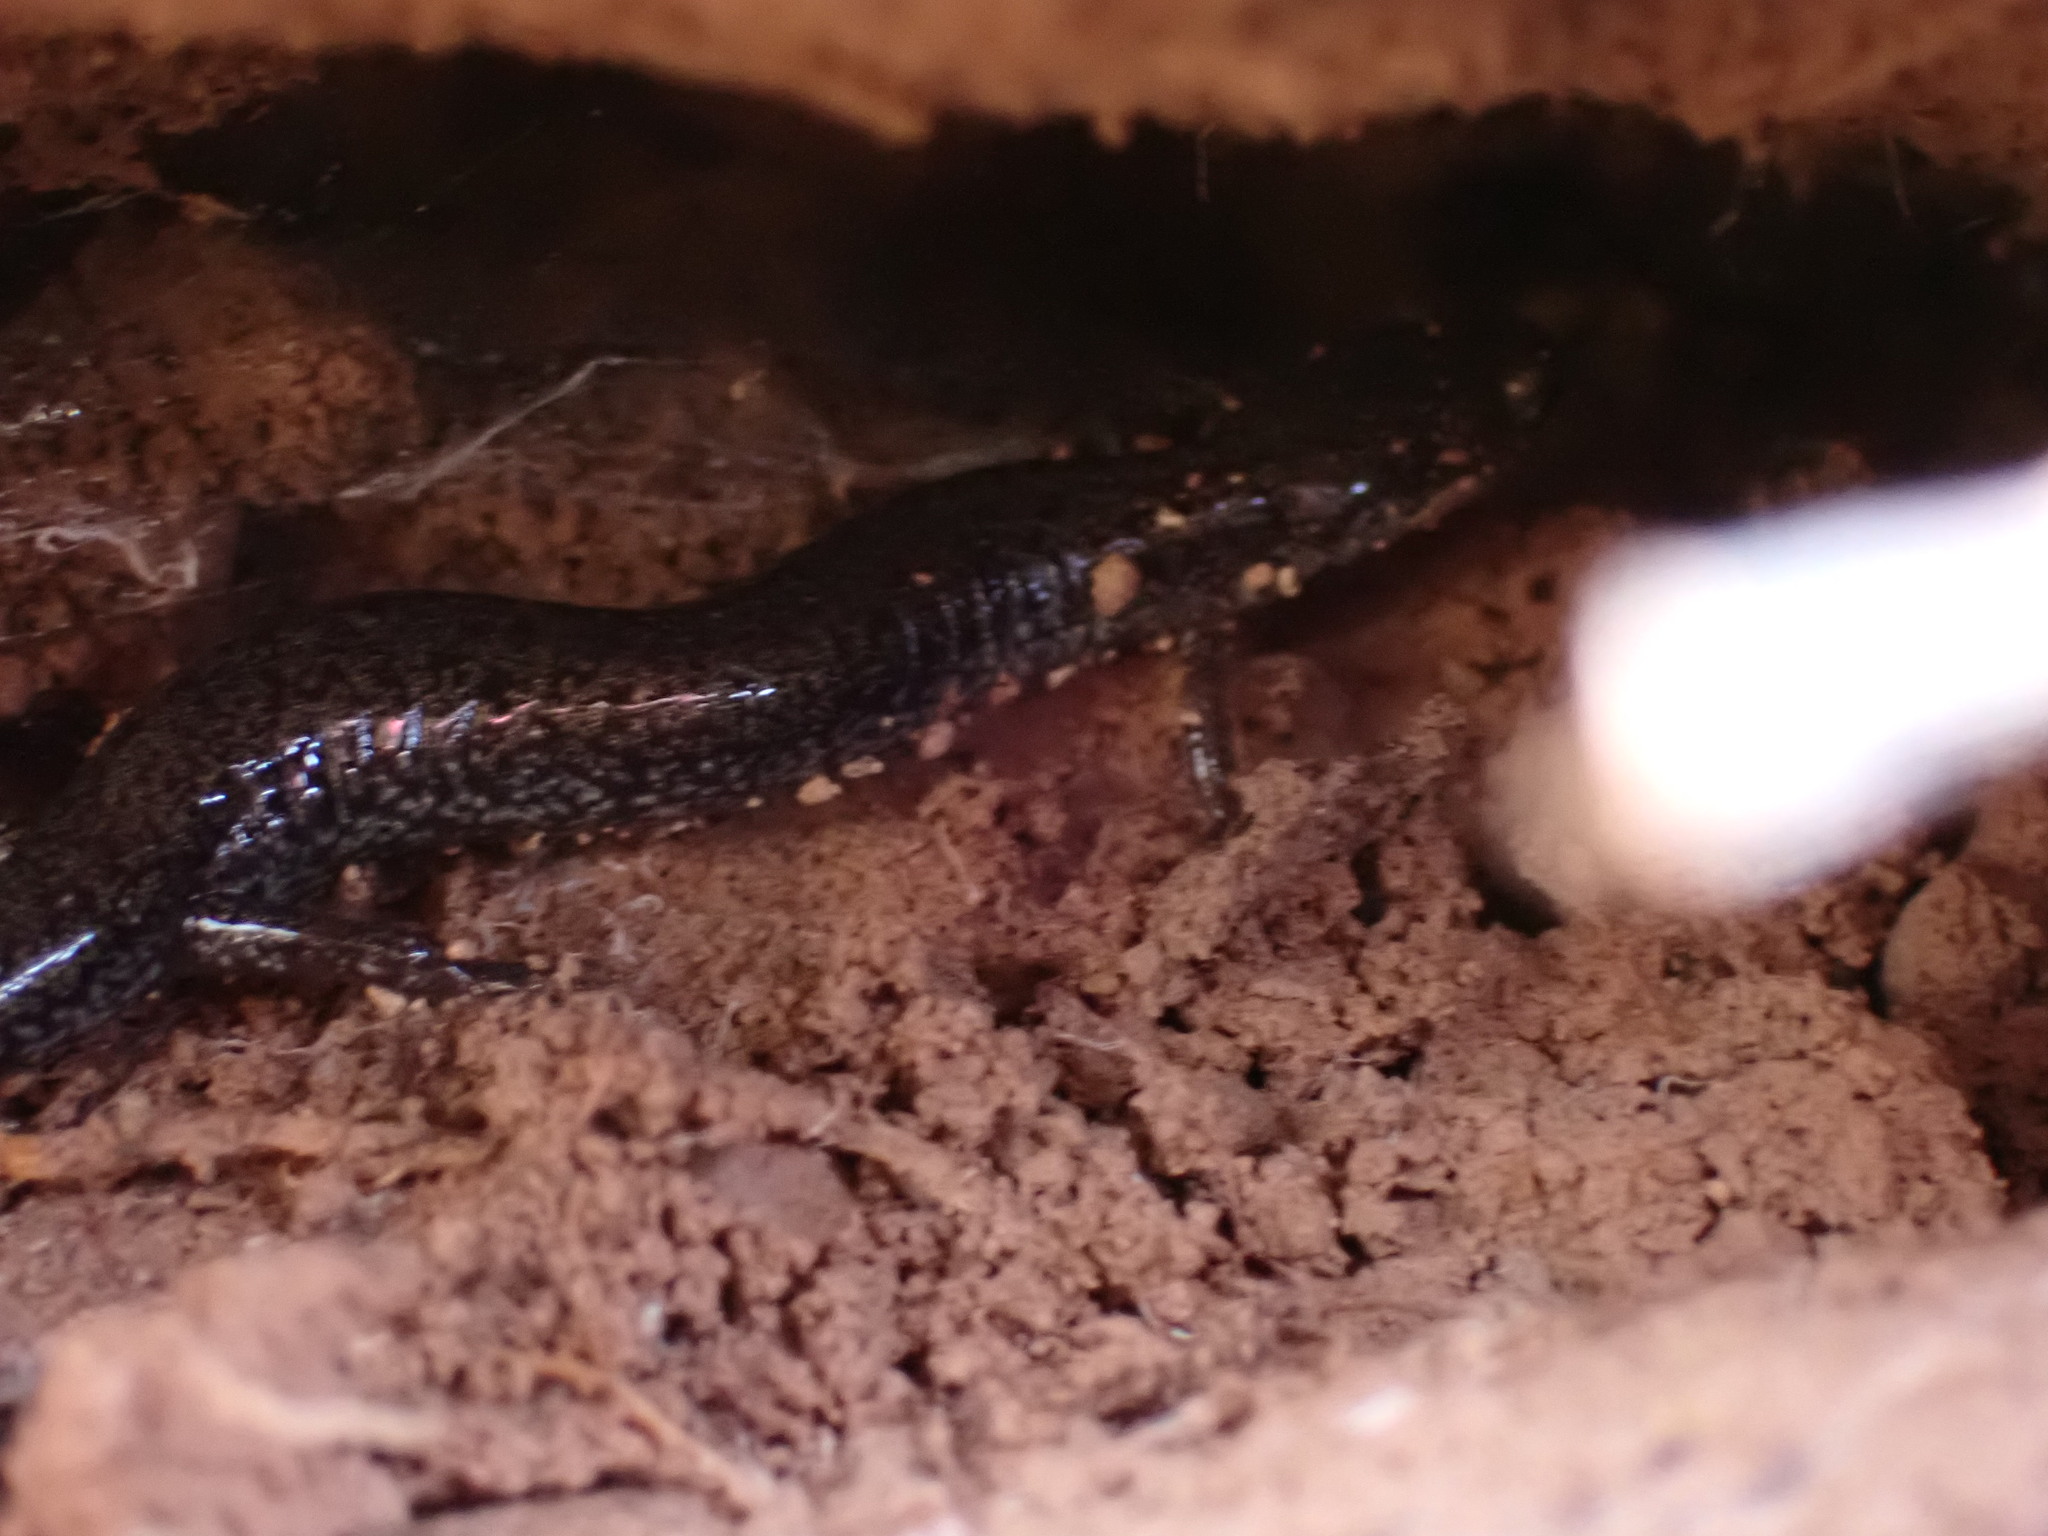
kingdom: Animalia
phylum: Chordata
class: Amphibia
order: Caudata
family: Plethodontidae
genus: Plethodon
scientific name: Plethodon cinereus
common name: Redback salamander
